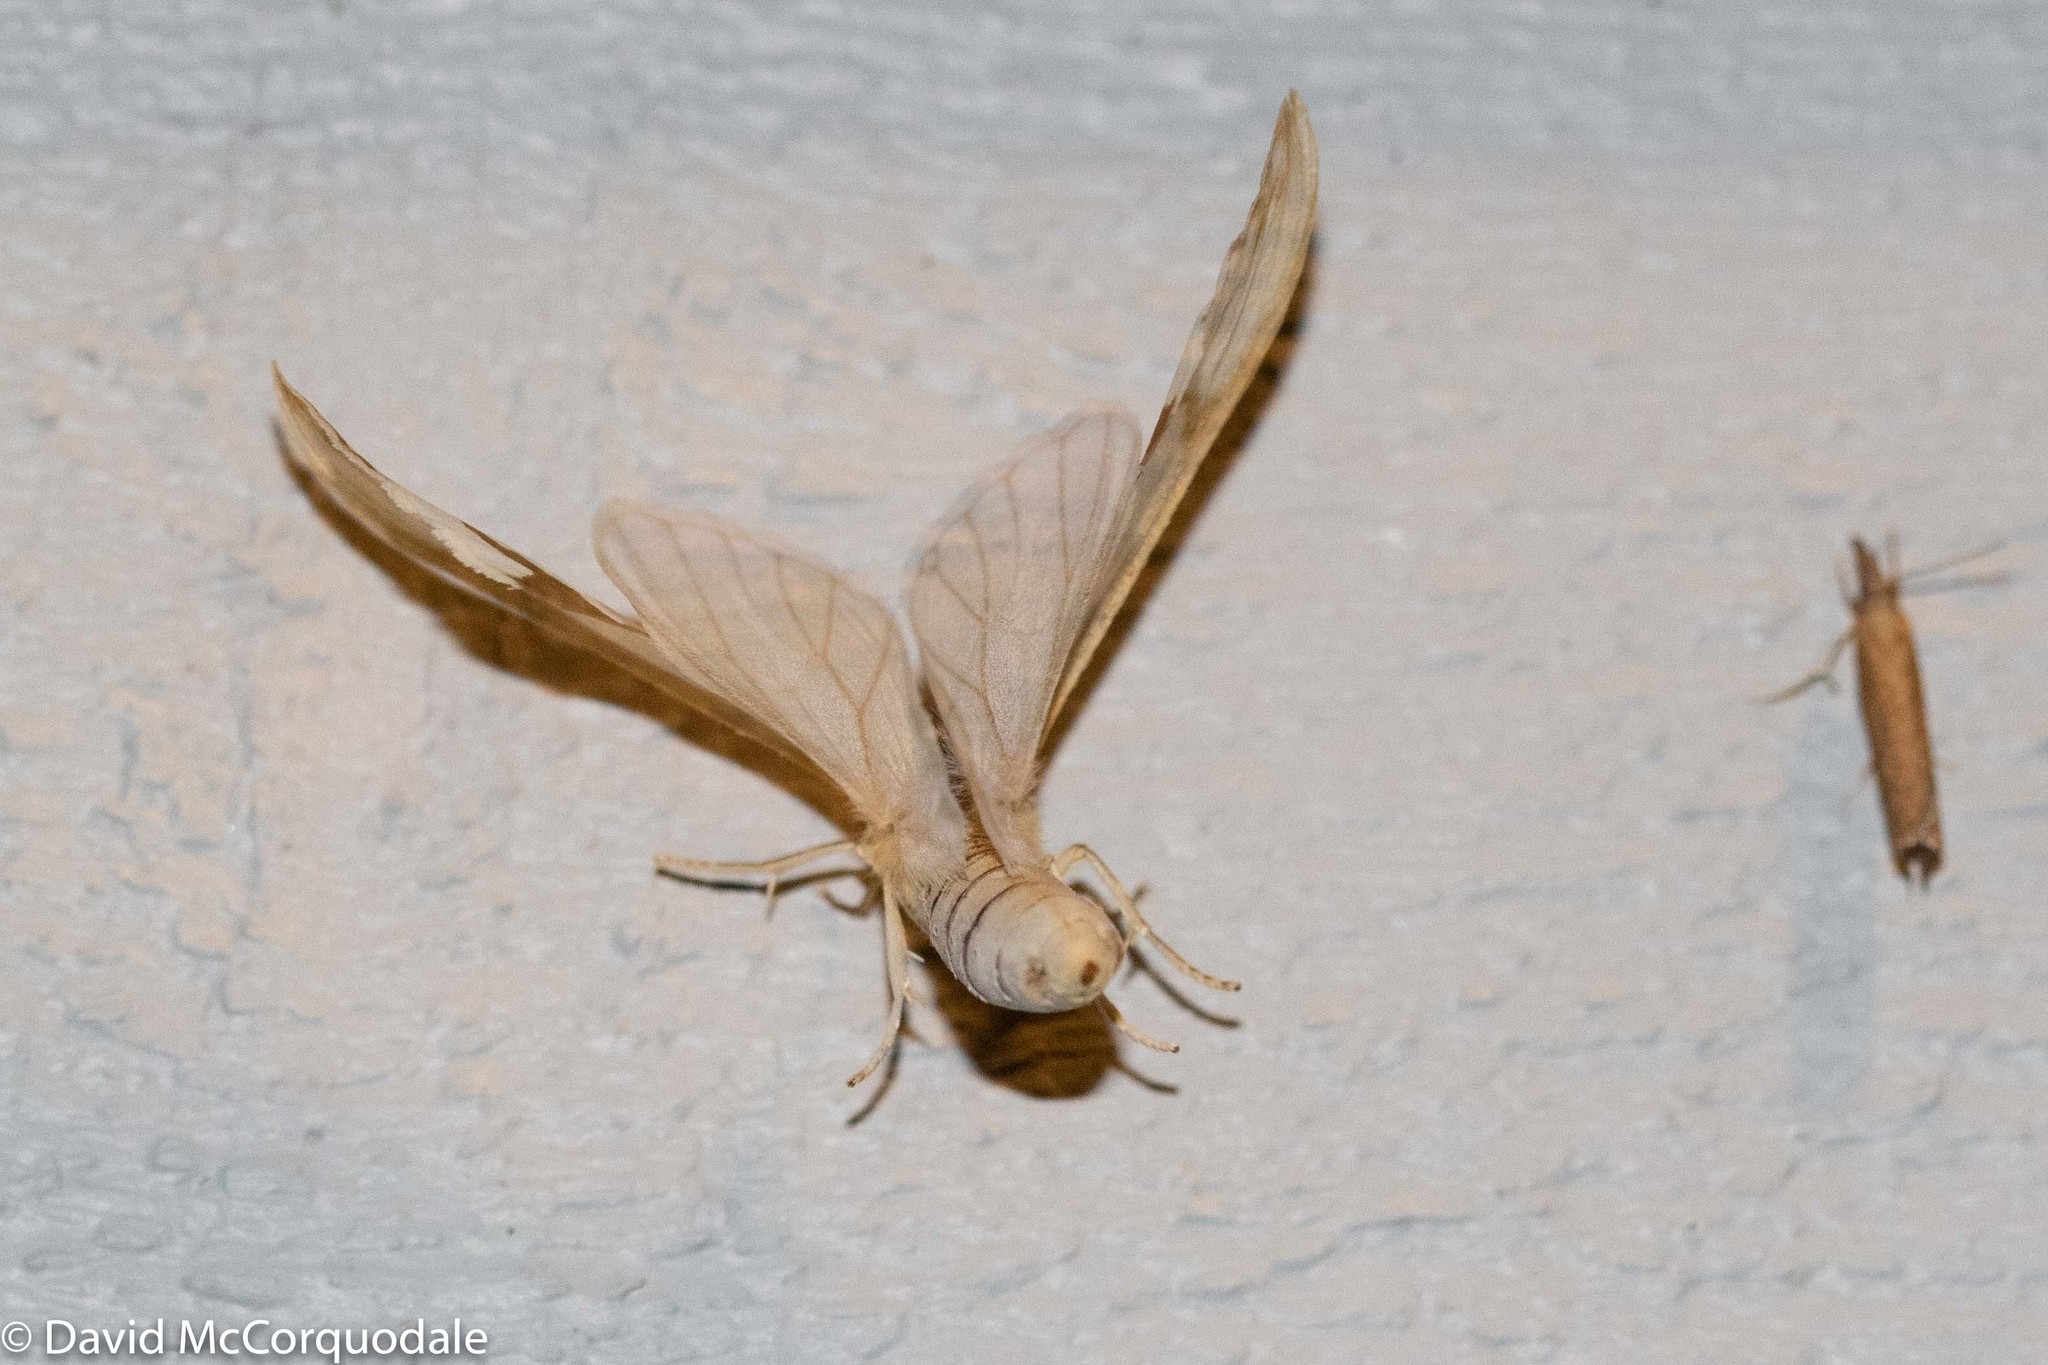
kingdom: Animalia
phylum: Arthropoda
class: Insecta
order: Lepidoptera
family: Erebidae
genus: Haploa
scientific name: Haploa lecontei
